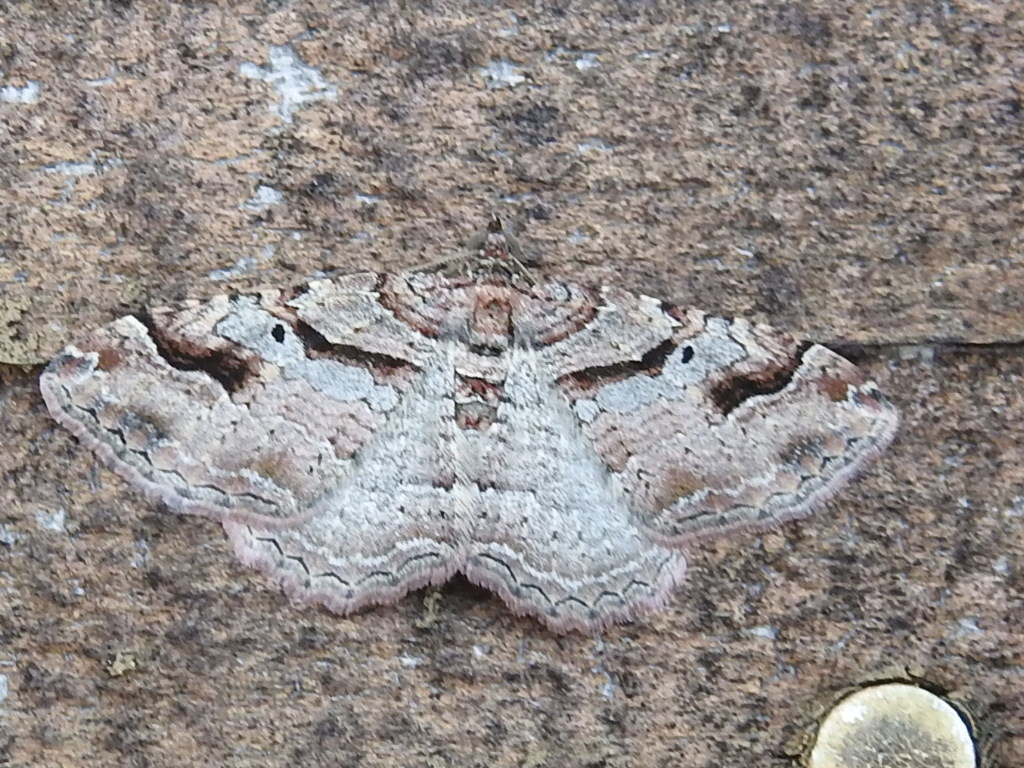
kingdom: Animalia
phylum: Arthropoda
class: Insecta
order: Lepidoptera
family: Geometridae
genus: Costaconvexa
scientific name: Costaconvexa centrostrigaria
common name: Bent-line carpet
